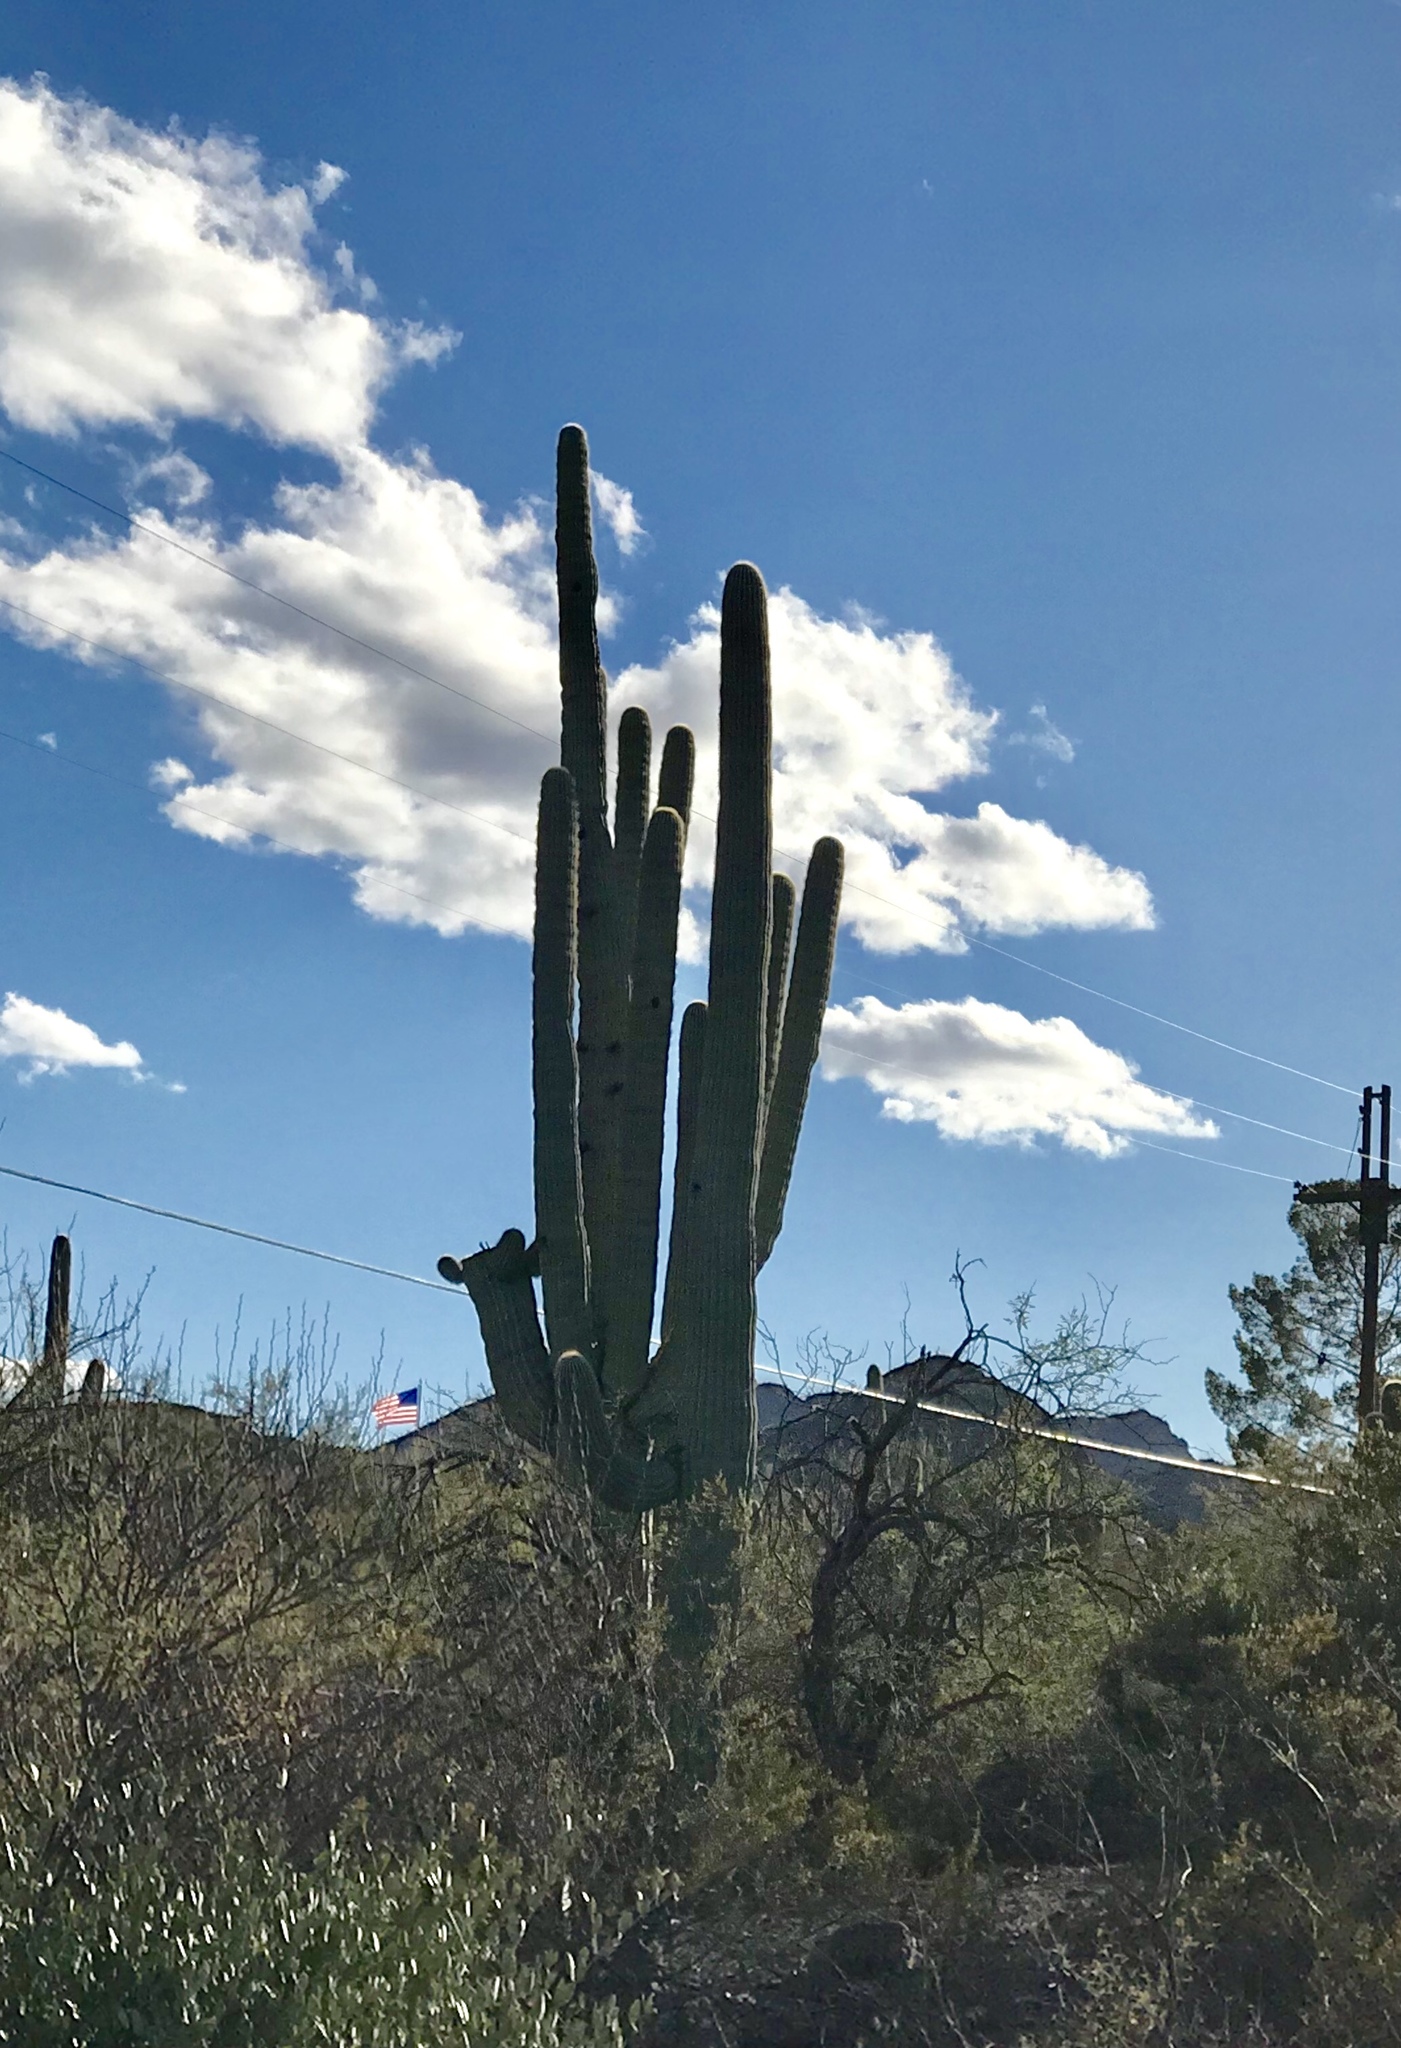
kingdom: Plantae
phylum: Tracheophyta
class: Magnoliopsida
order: Caryophyllales
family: Cactaceae
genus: Carnegiea
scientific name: Carnegiea gigantea
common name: Saguaro
